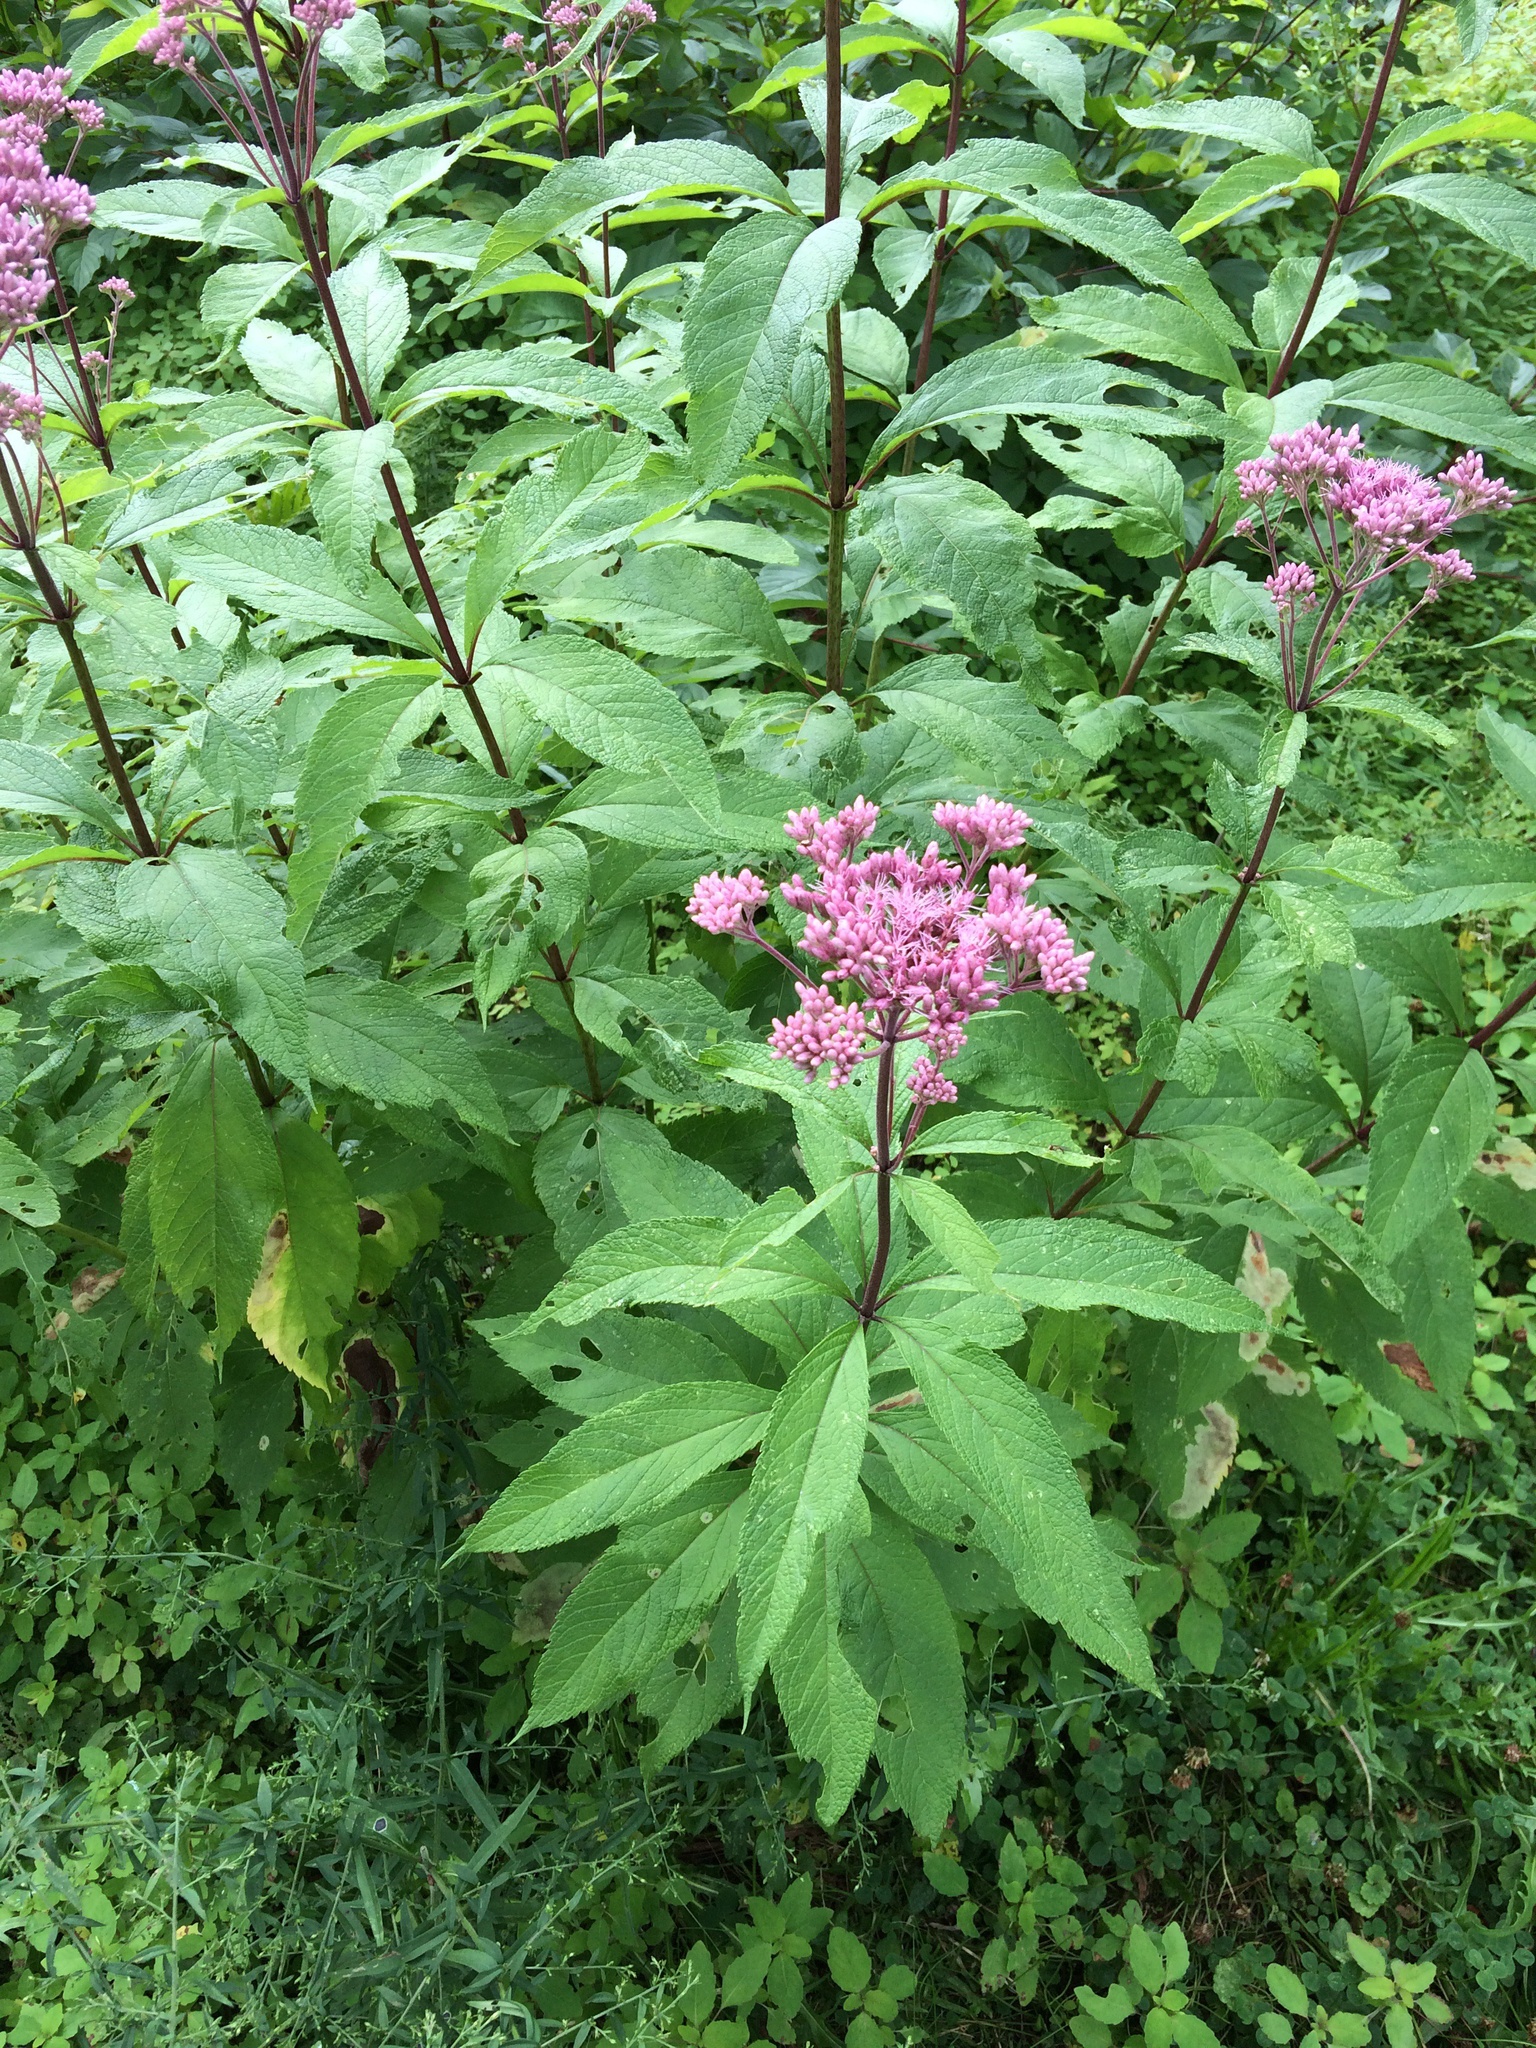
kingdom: Plantae
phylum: Tracheophyta
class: Magnoliopsida
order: Asterales
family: Asteraceae
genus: Eutrochium
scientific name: Eutrochium maculatum
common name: Spotted joe pye weed
